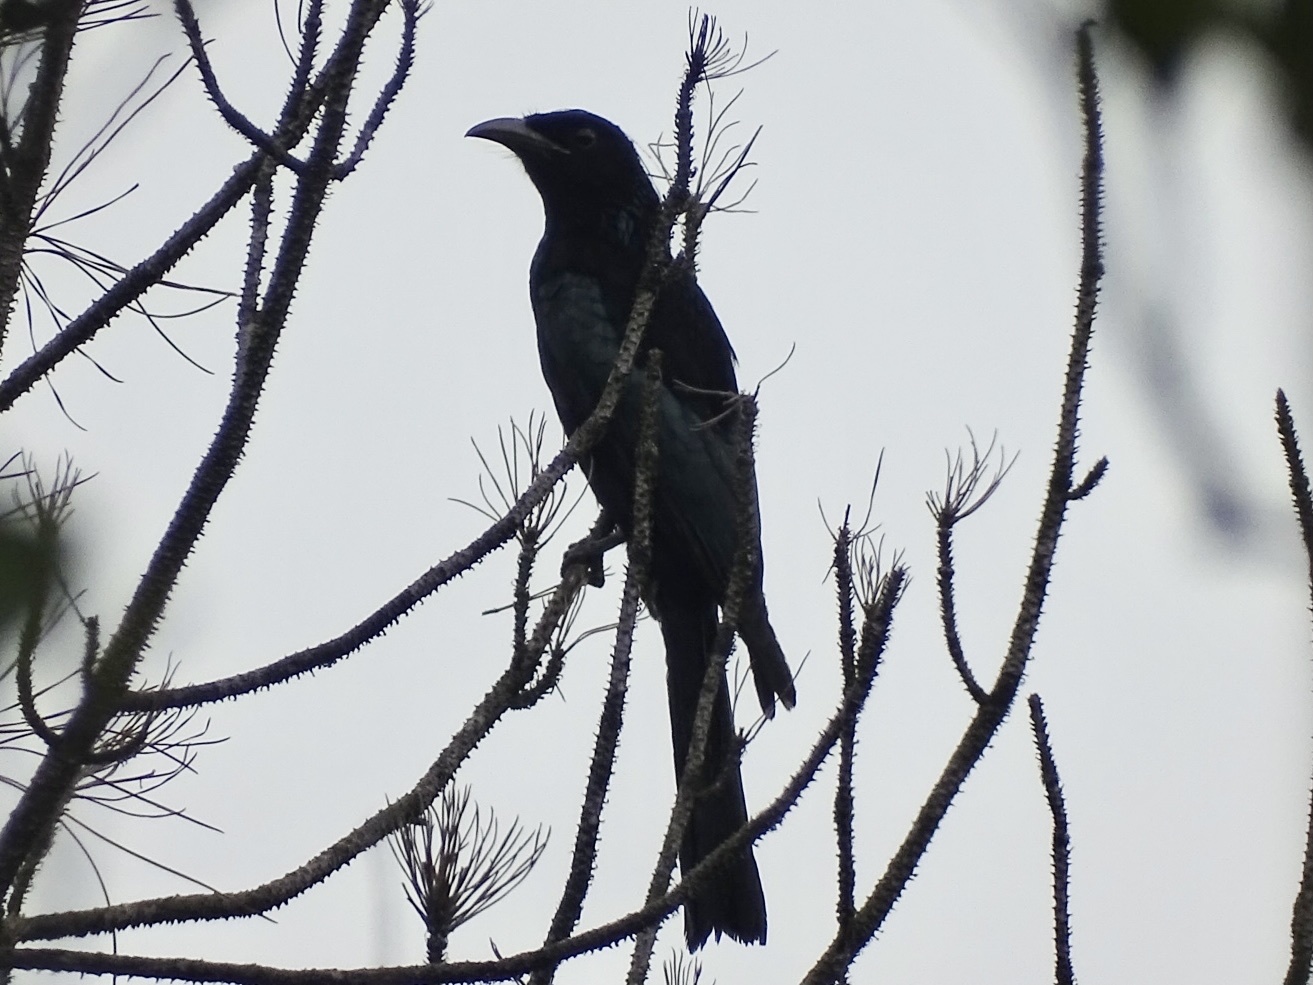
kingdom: Animalia
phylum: Chordata
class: Aves
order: Passeriformes
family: Dicruridae
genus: Dicrurus
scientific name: Dicrurus hottentottus
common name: Hair-crested drongo
